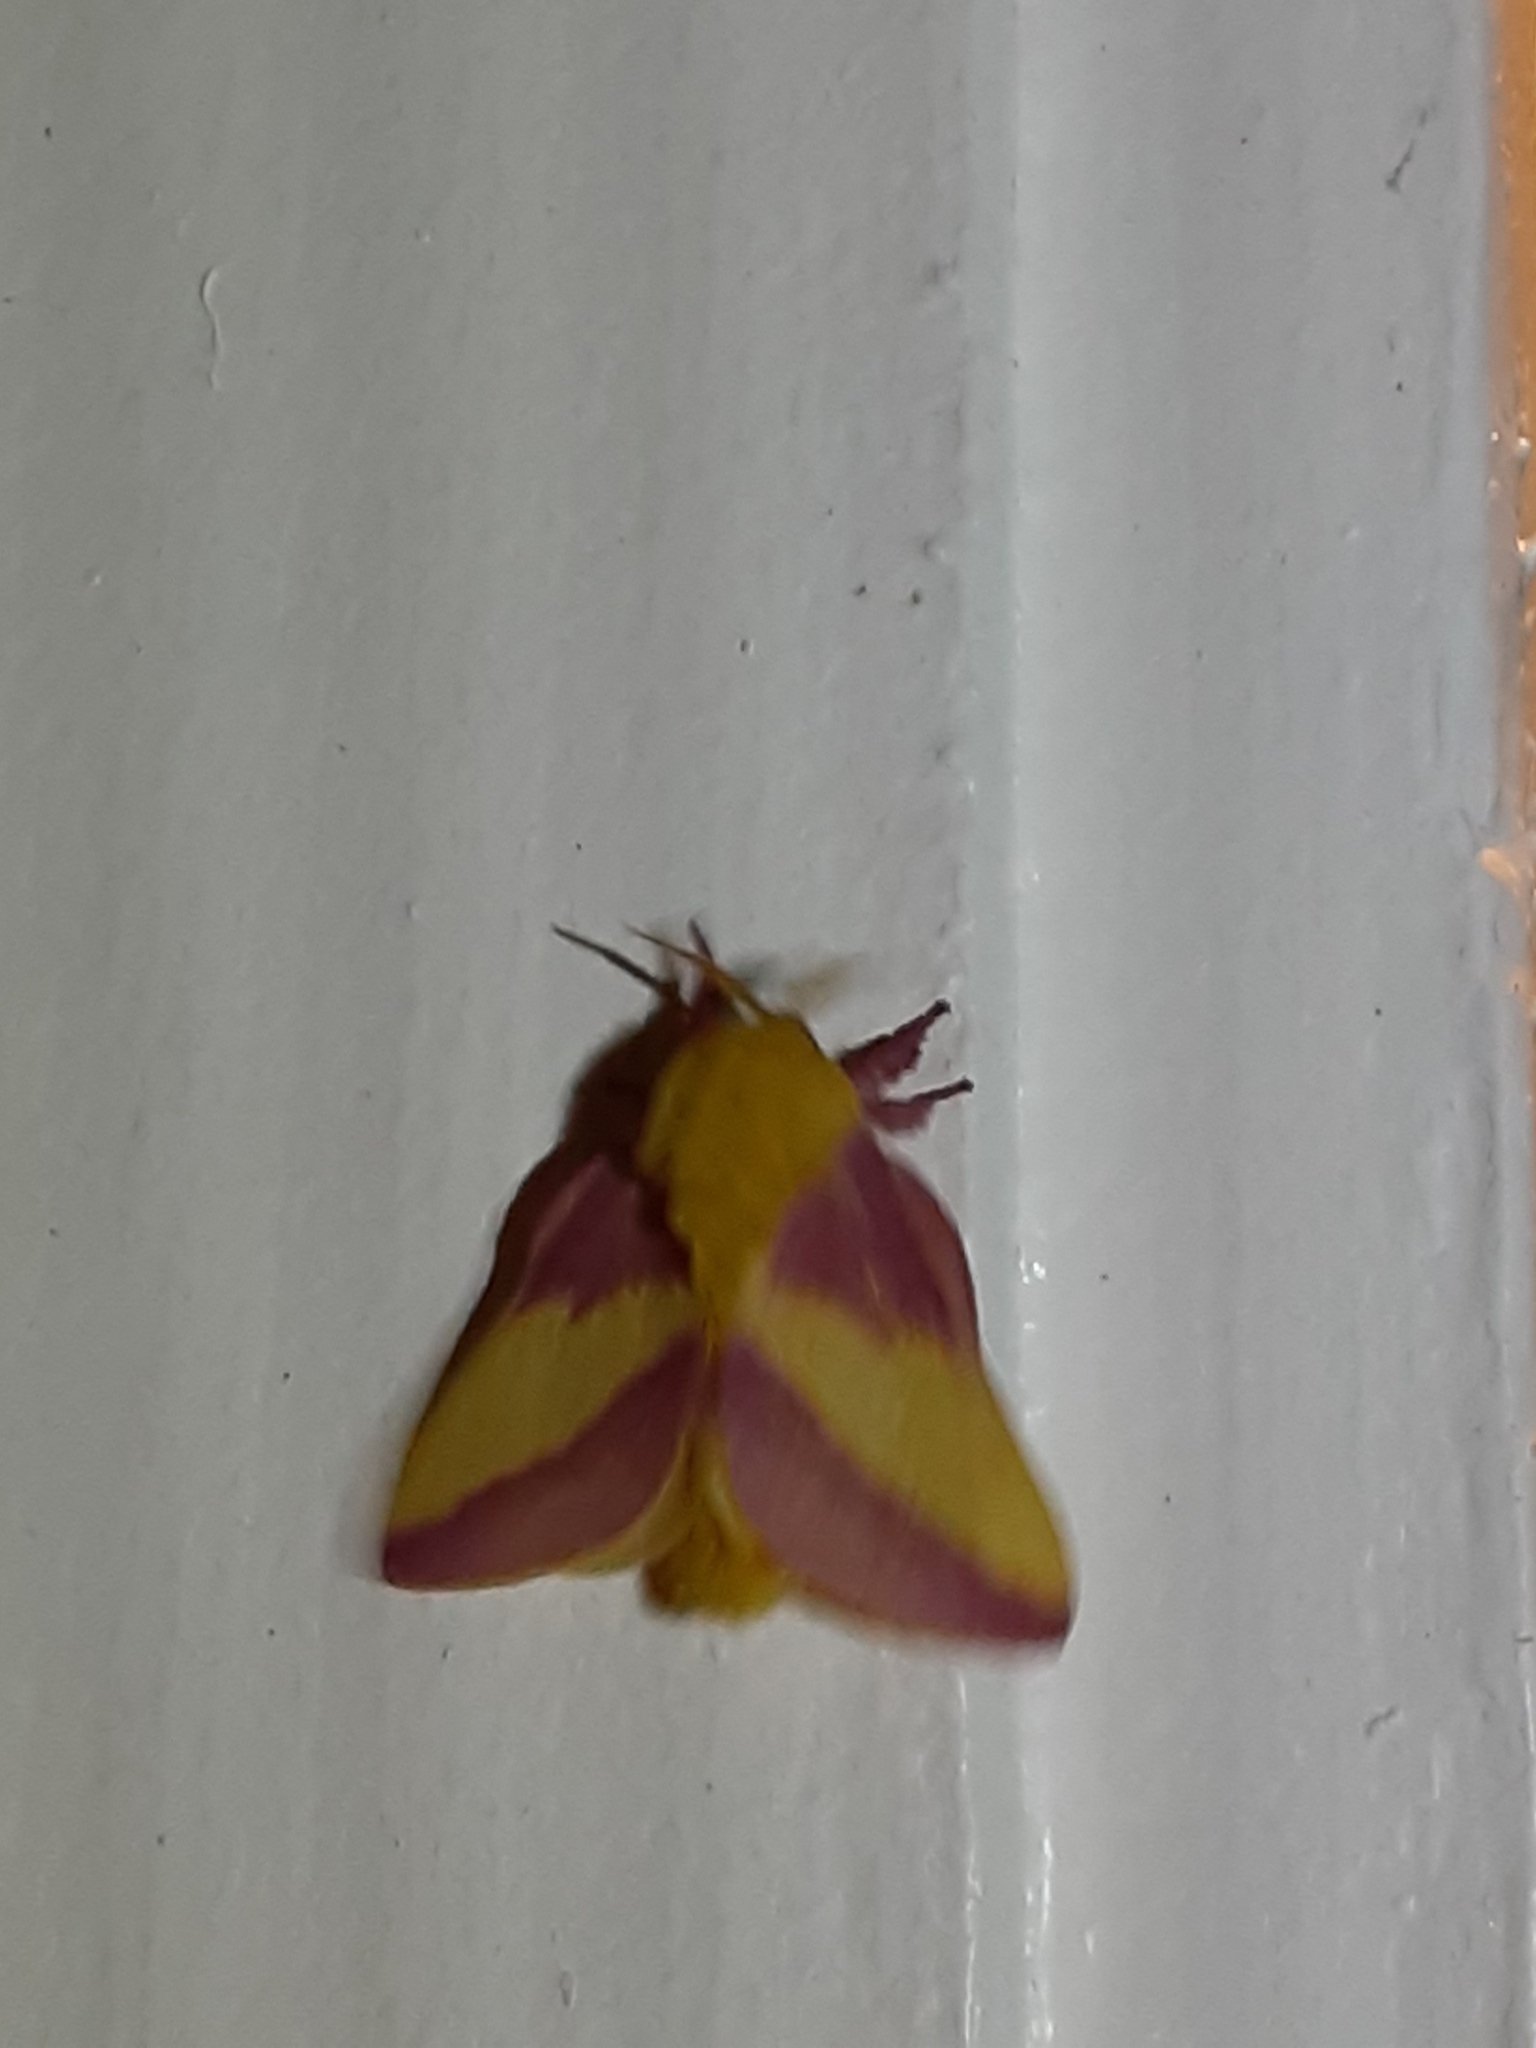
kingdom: Animalia
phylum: Arthropoda
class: Insecta
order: Lepidoptera
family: Saturniidae
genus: Dryocampa
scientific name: Dryocampa rubicunda
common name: Rosy maple moth
